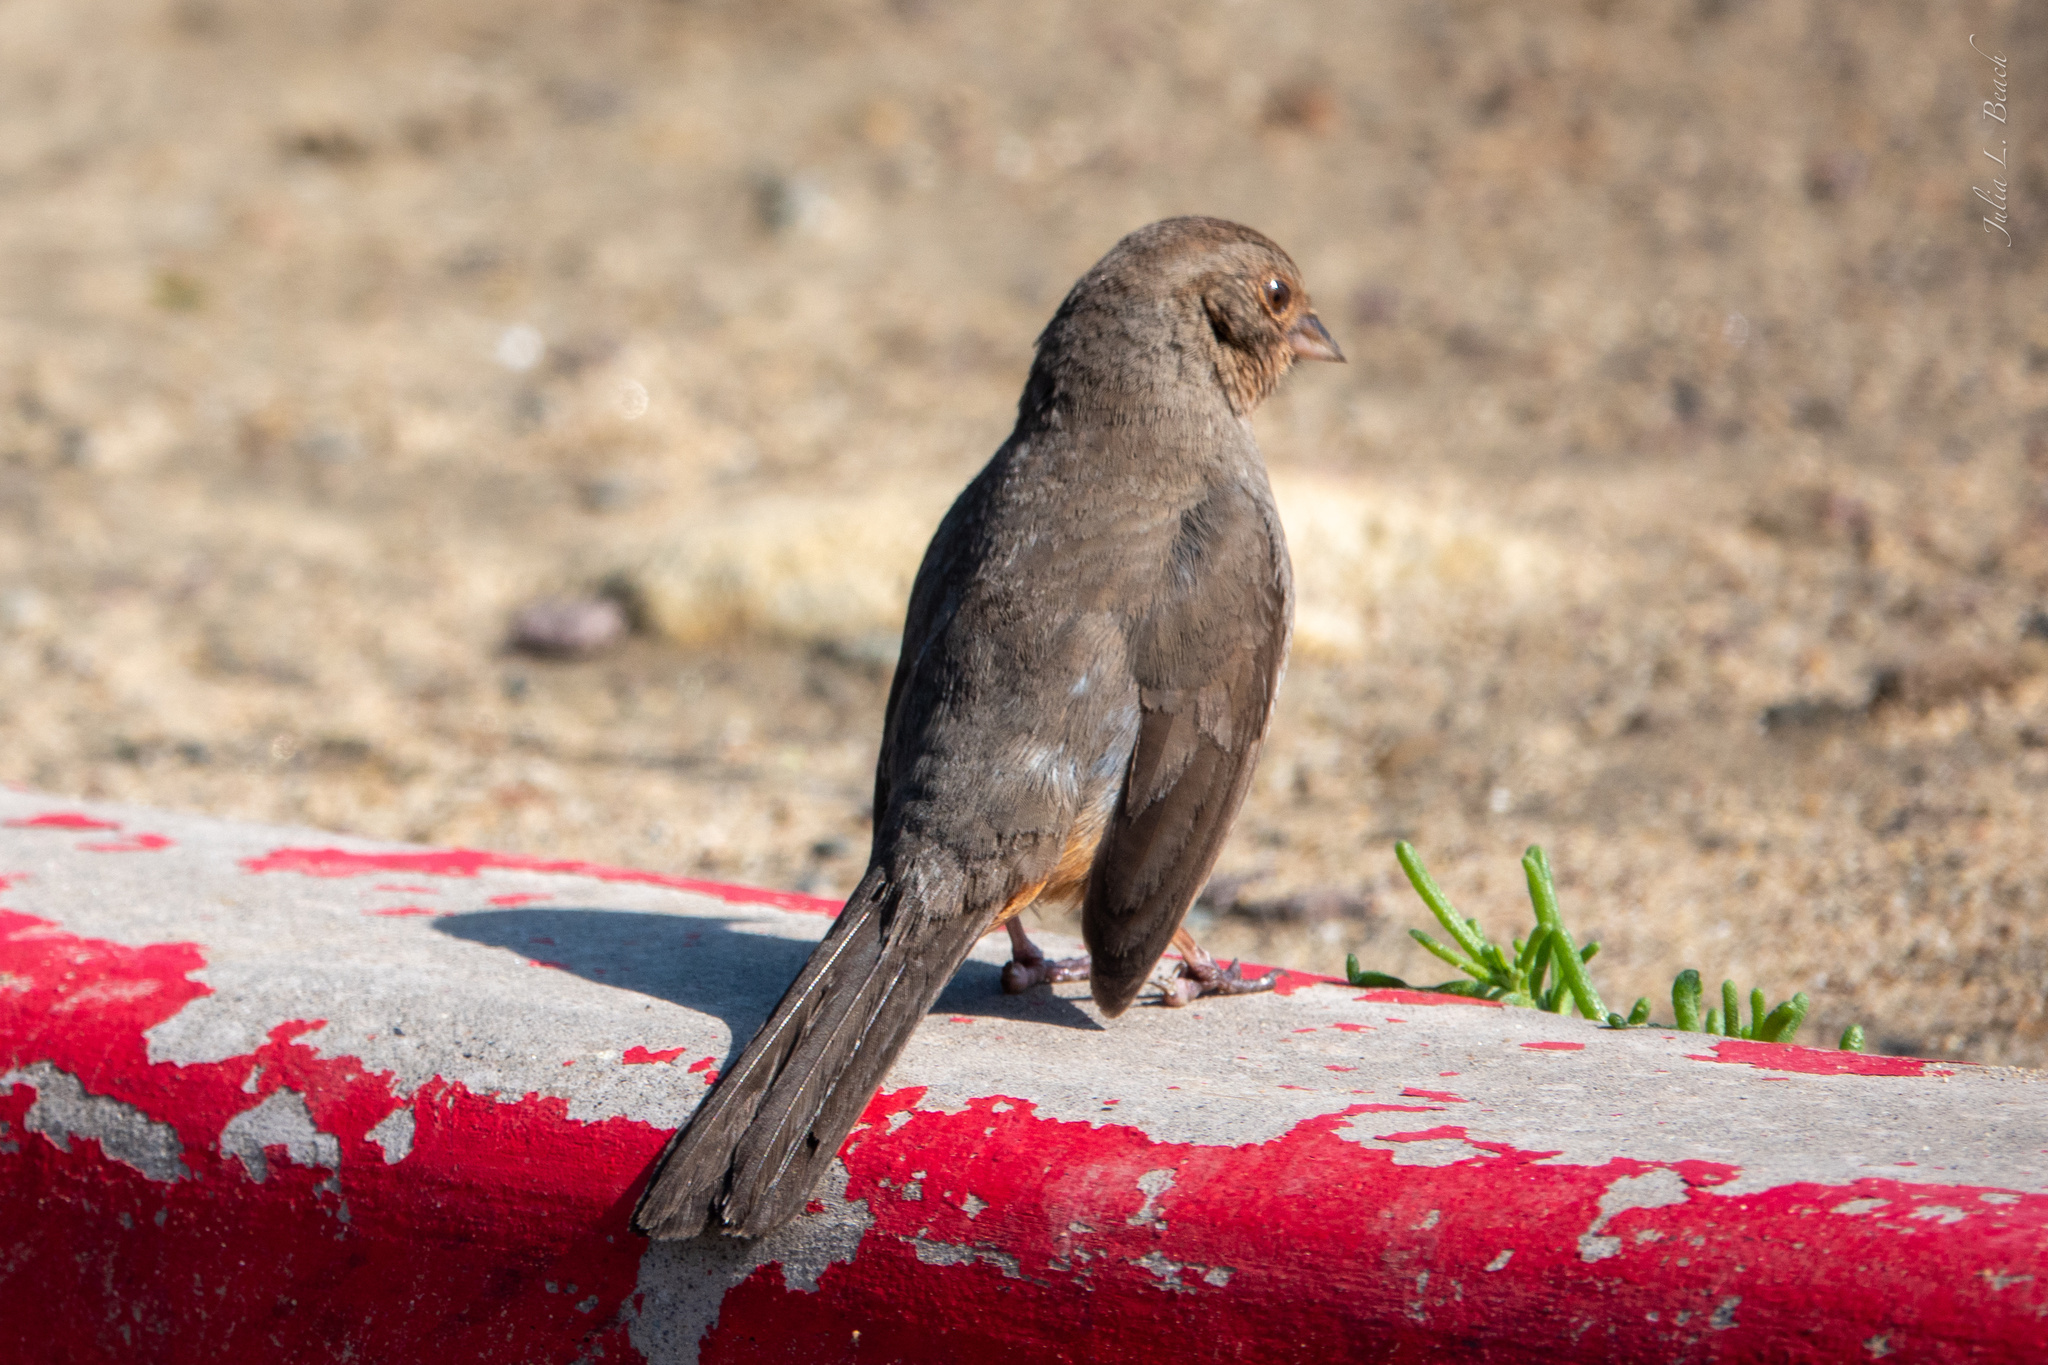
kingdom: Animalia
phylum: Chordata
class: Aves
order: Passeriformes
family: Passerellidae
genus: Melozone
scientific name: Melozone crissalis
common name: California towhee
